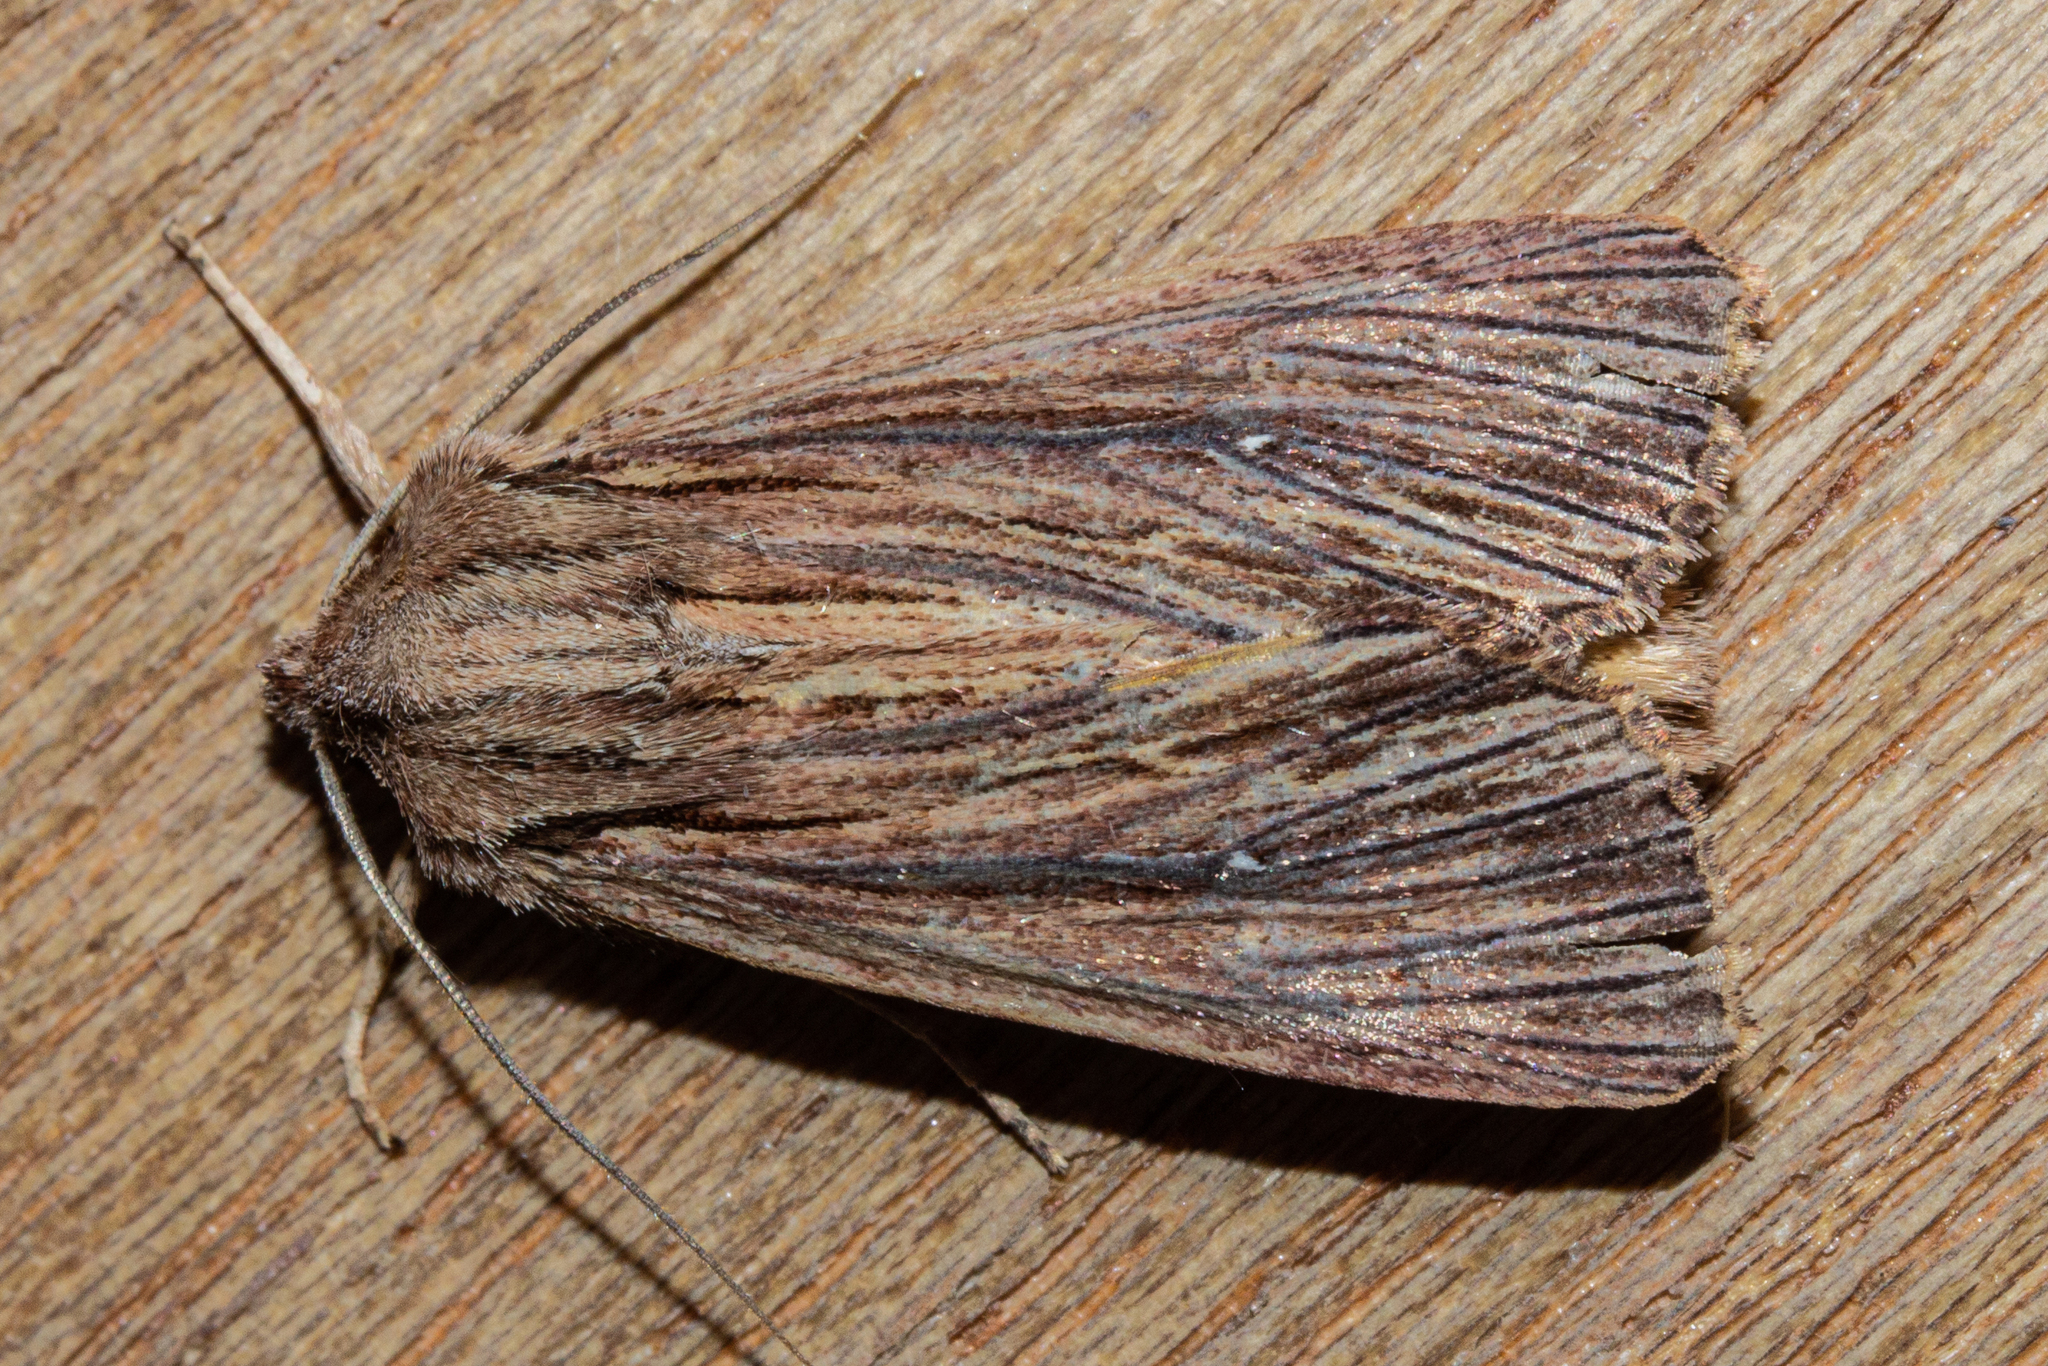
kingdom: Animalia
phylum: Arthropoda
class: Insecta
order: Lepidoptera
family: Noctuidae
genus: Ichneutica
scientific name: Ichneutica
